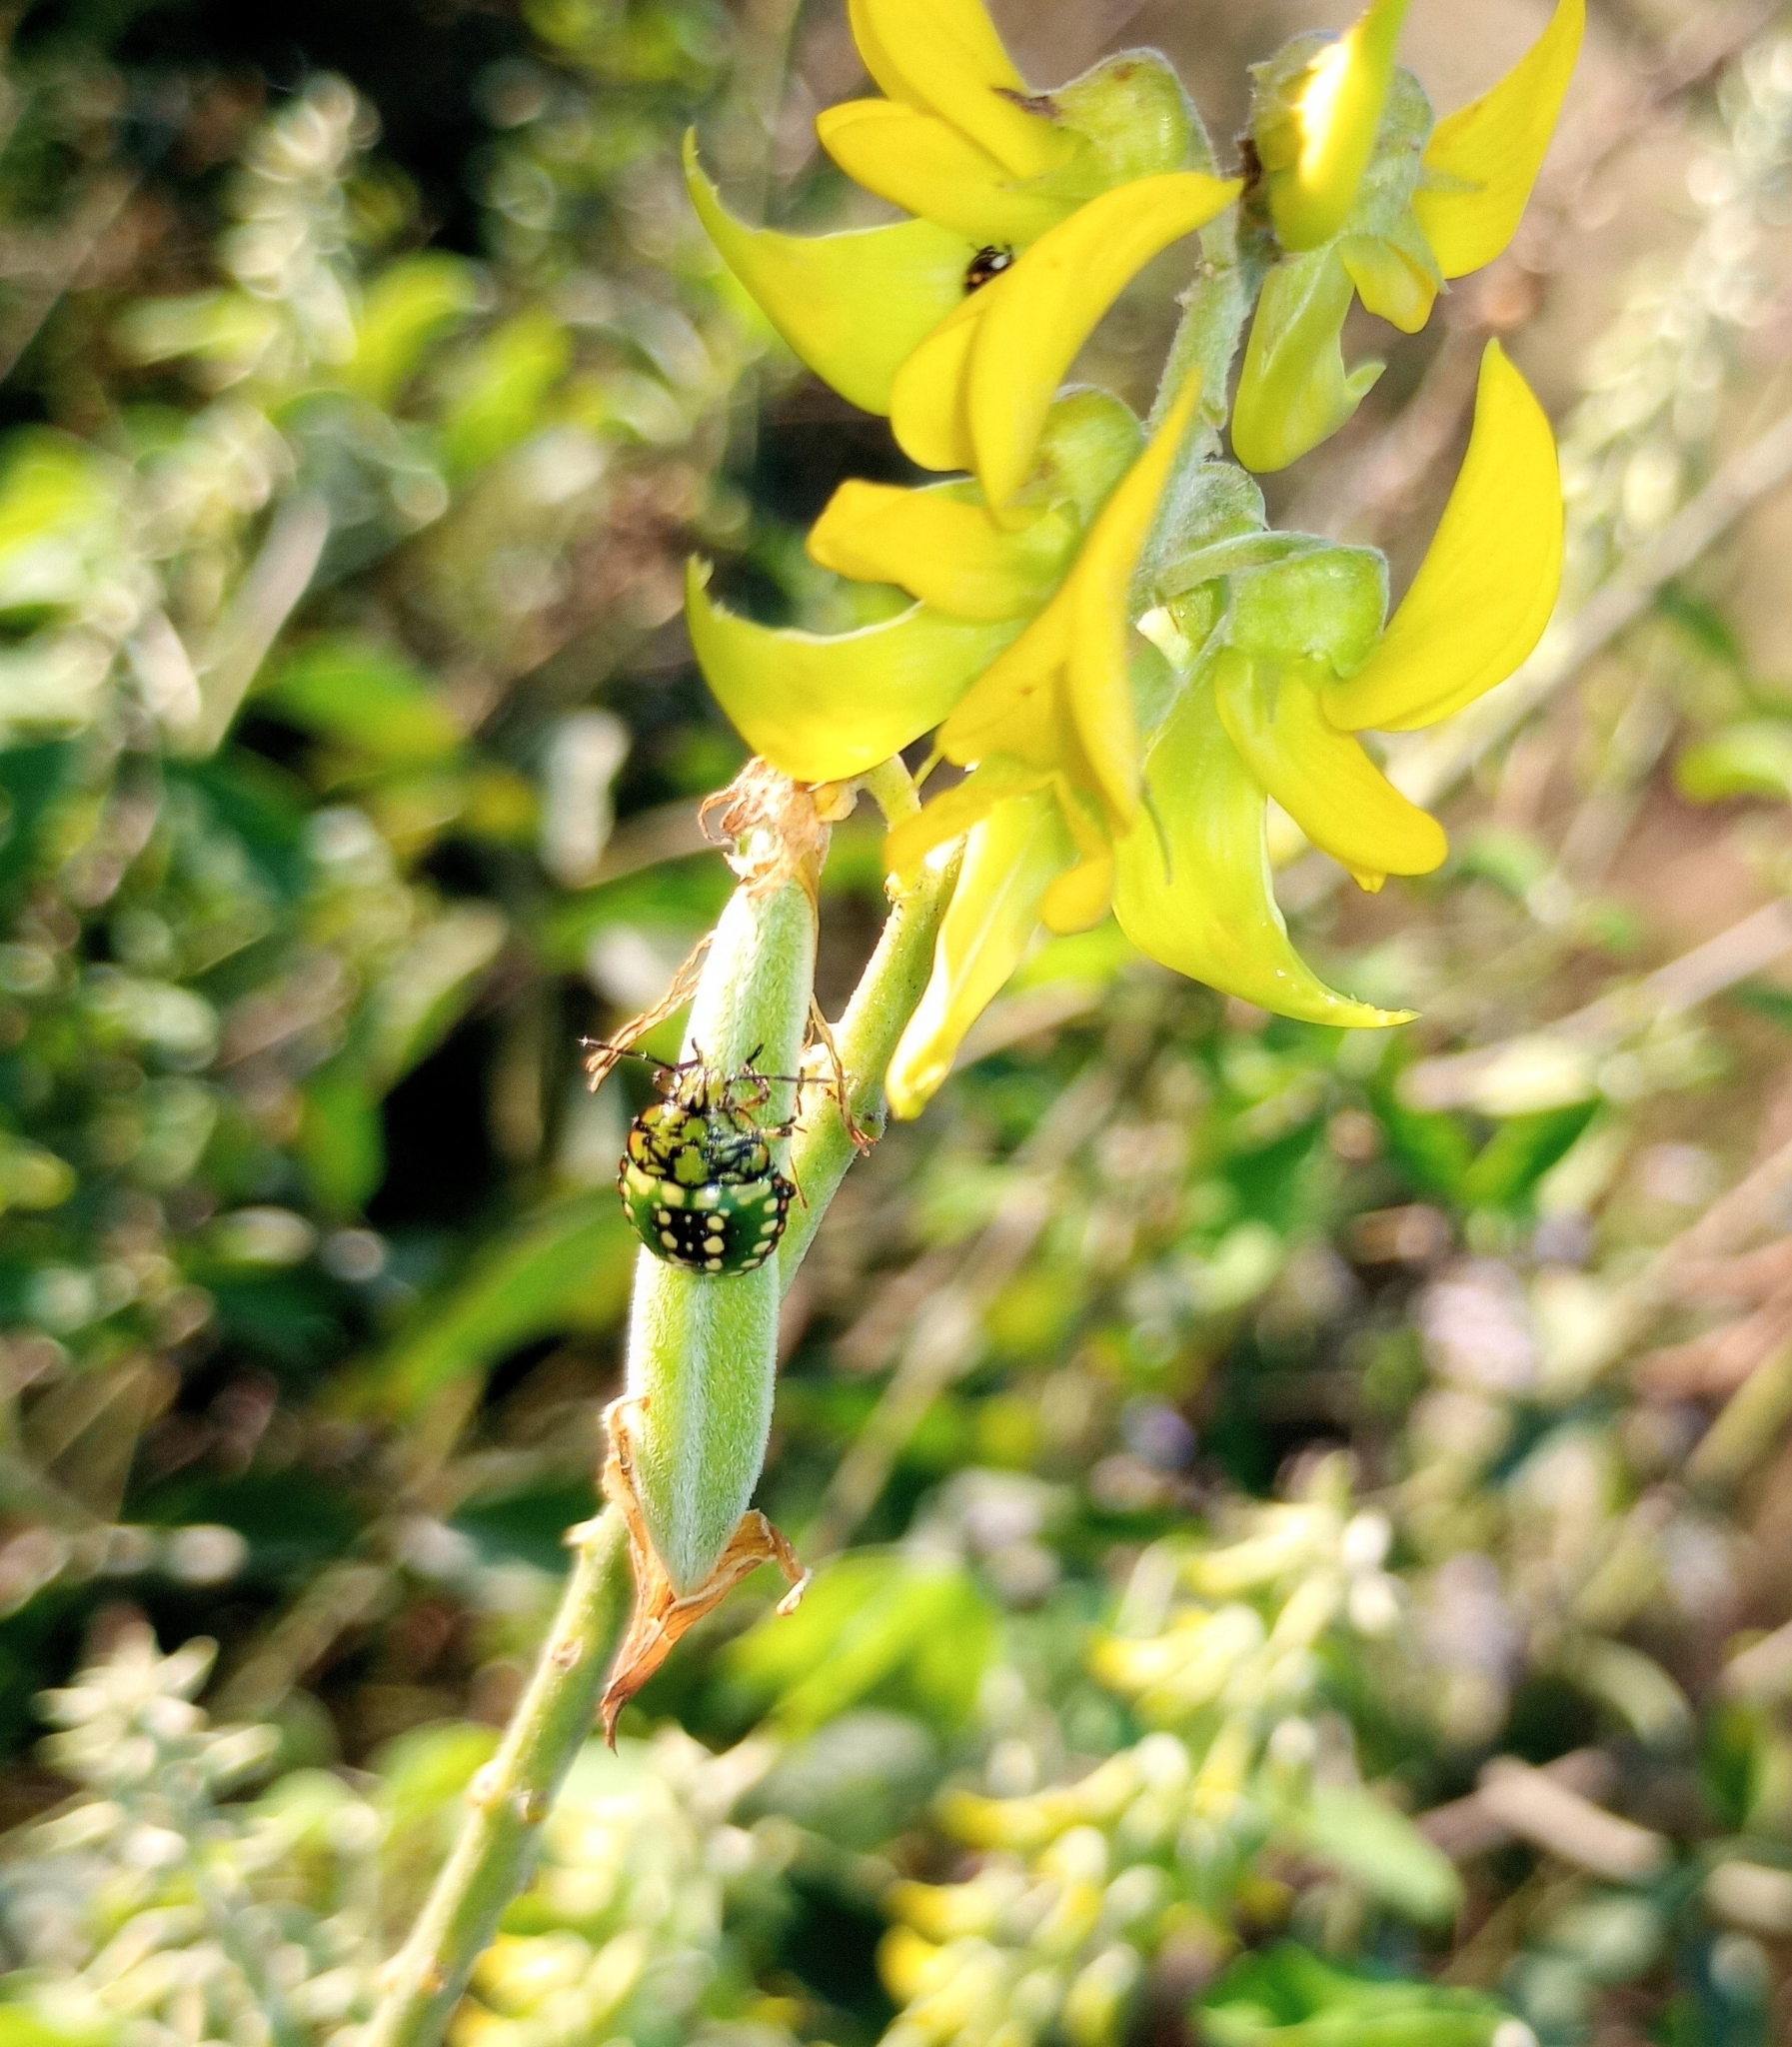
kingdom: Animalia
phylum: Arthropoda
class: Insecta
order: Hemiptera
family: Pentatomidae
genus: Nezara
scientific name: Nezara viridula
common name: Southern green stink bug
